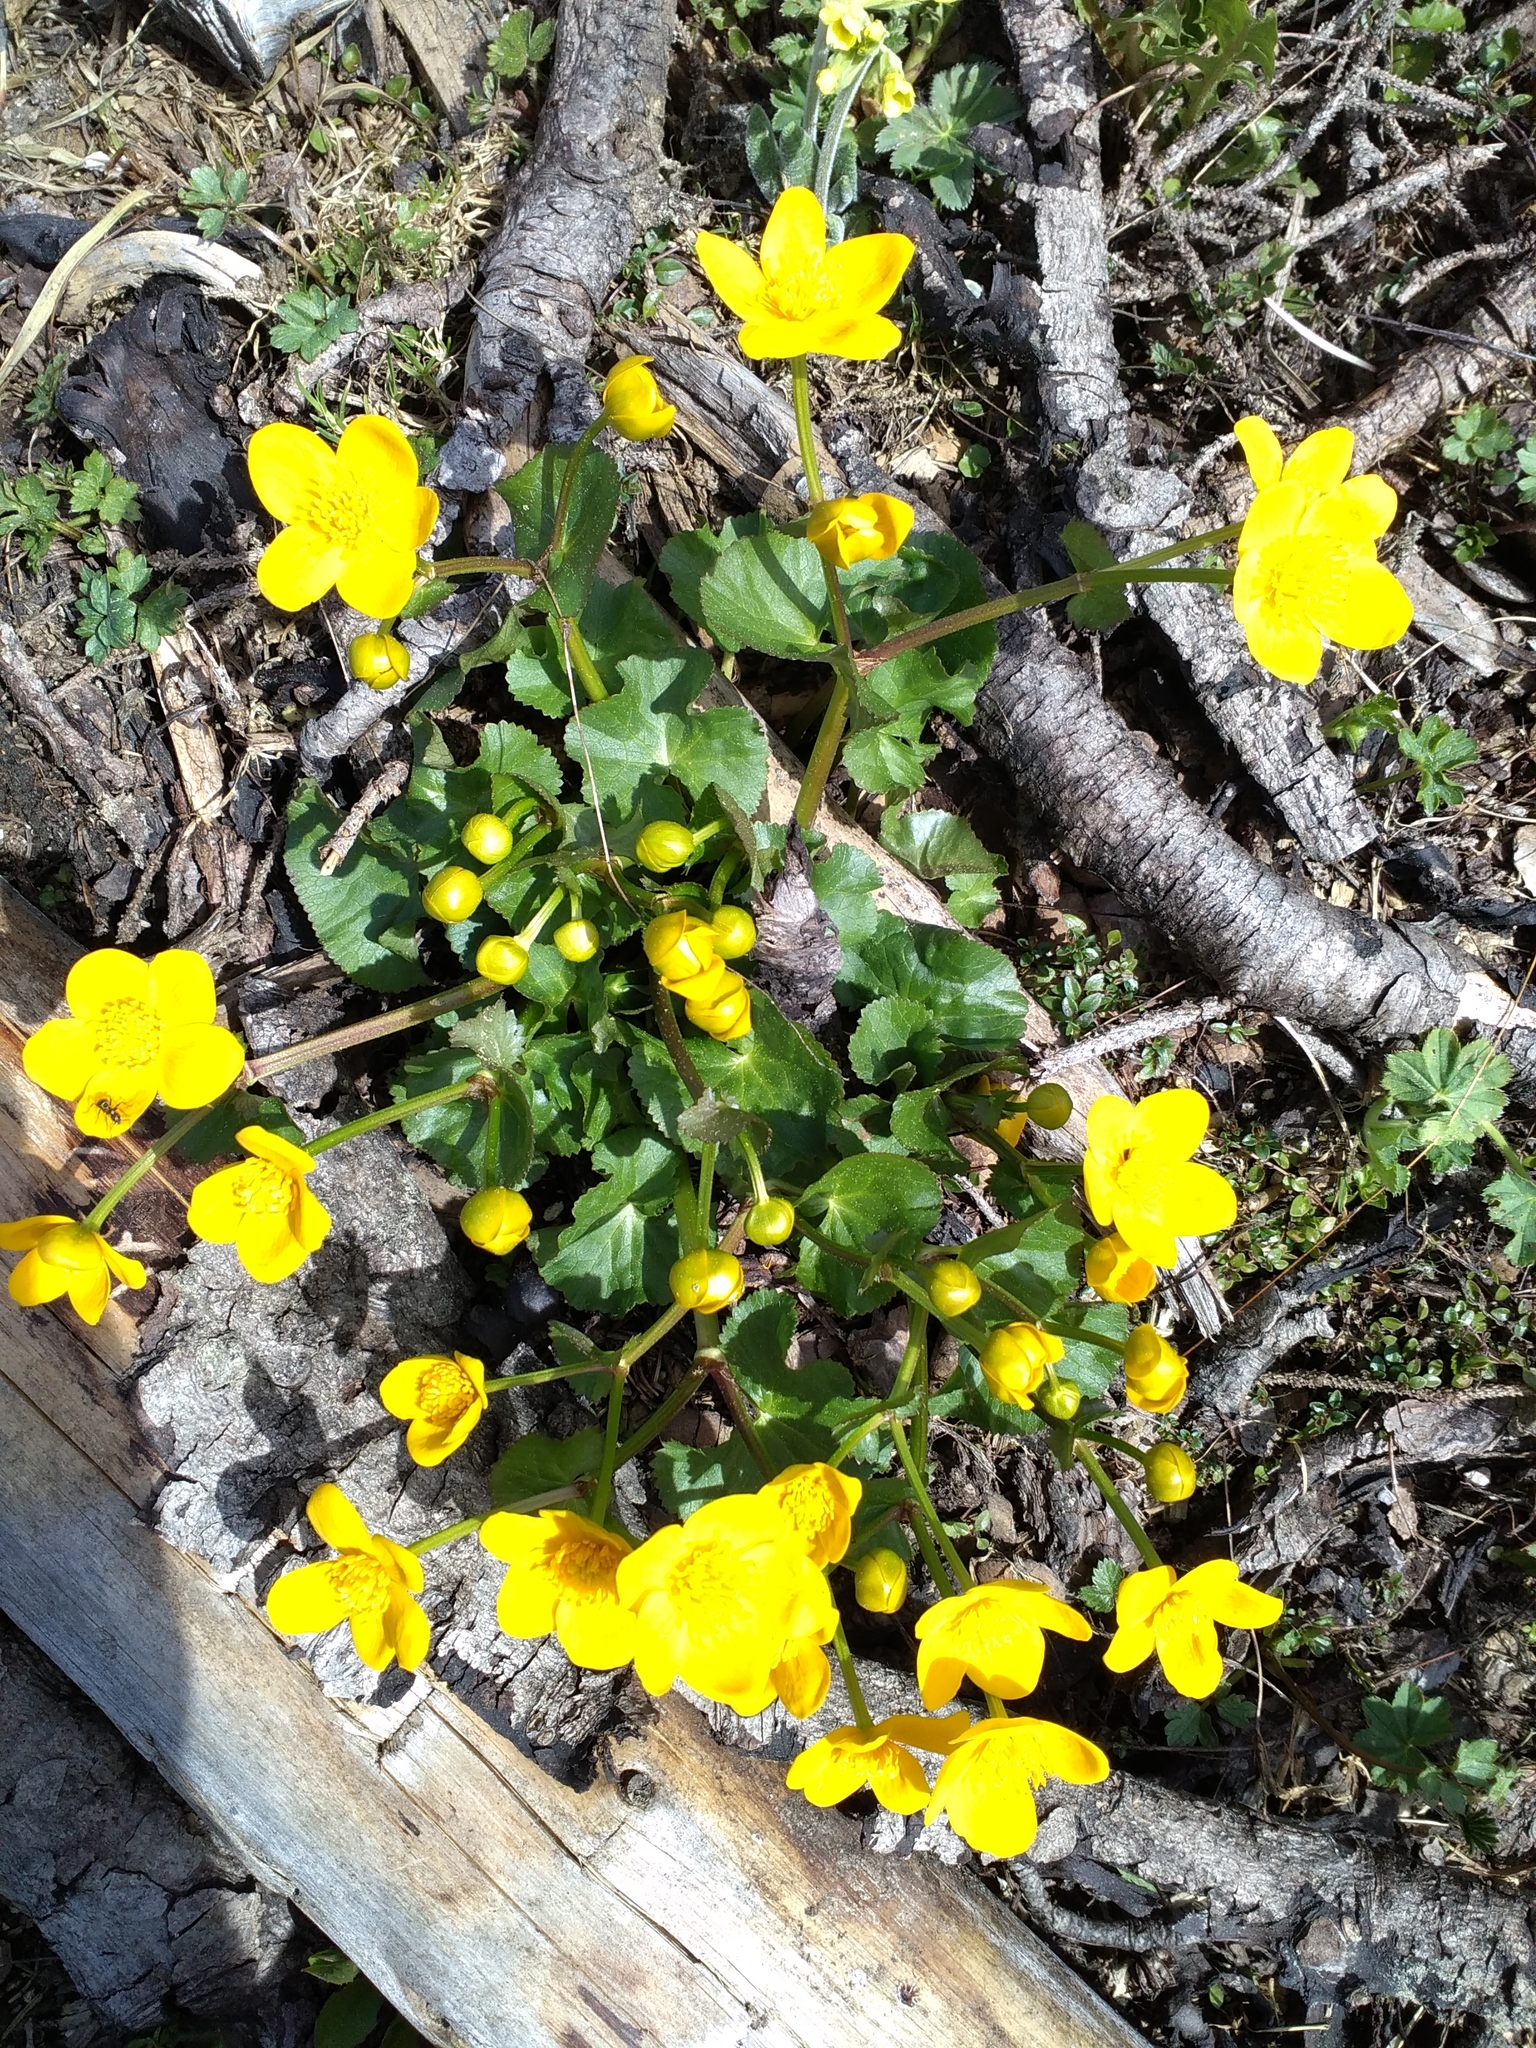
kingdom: Plantae
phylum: Tracheophyta
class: Magnoliopsida
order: Ranunculales
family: Ranunculaceae
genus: Caltha
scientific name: Caltha palustris
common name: Marsh marigold
